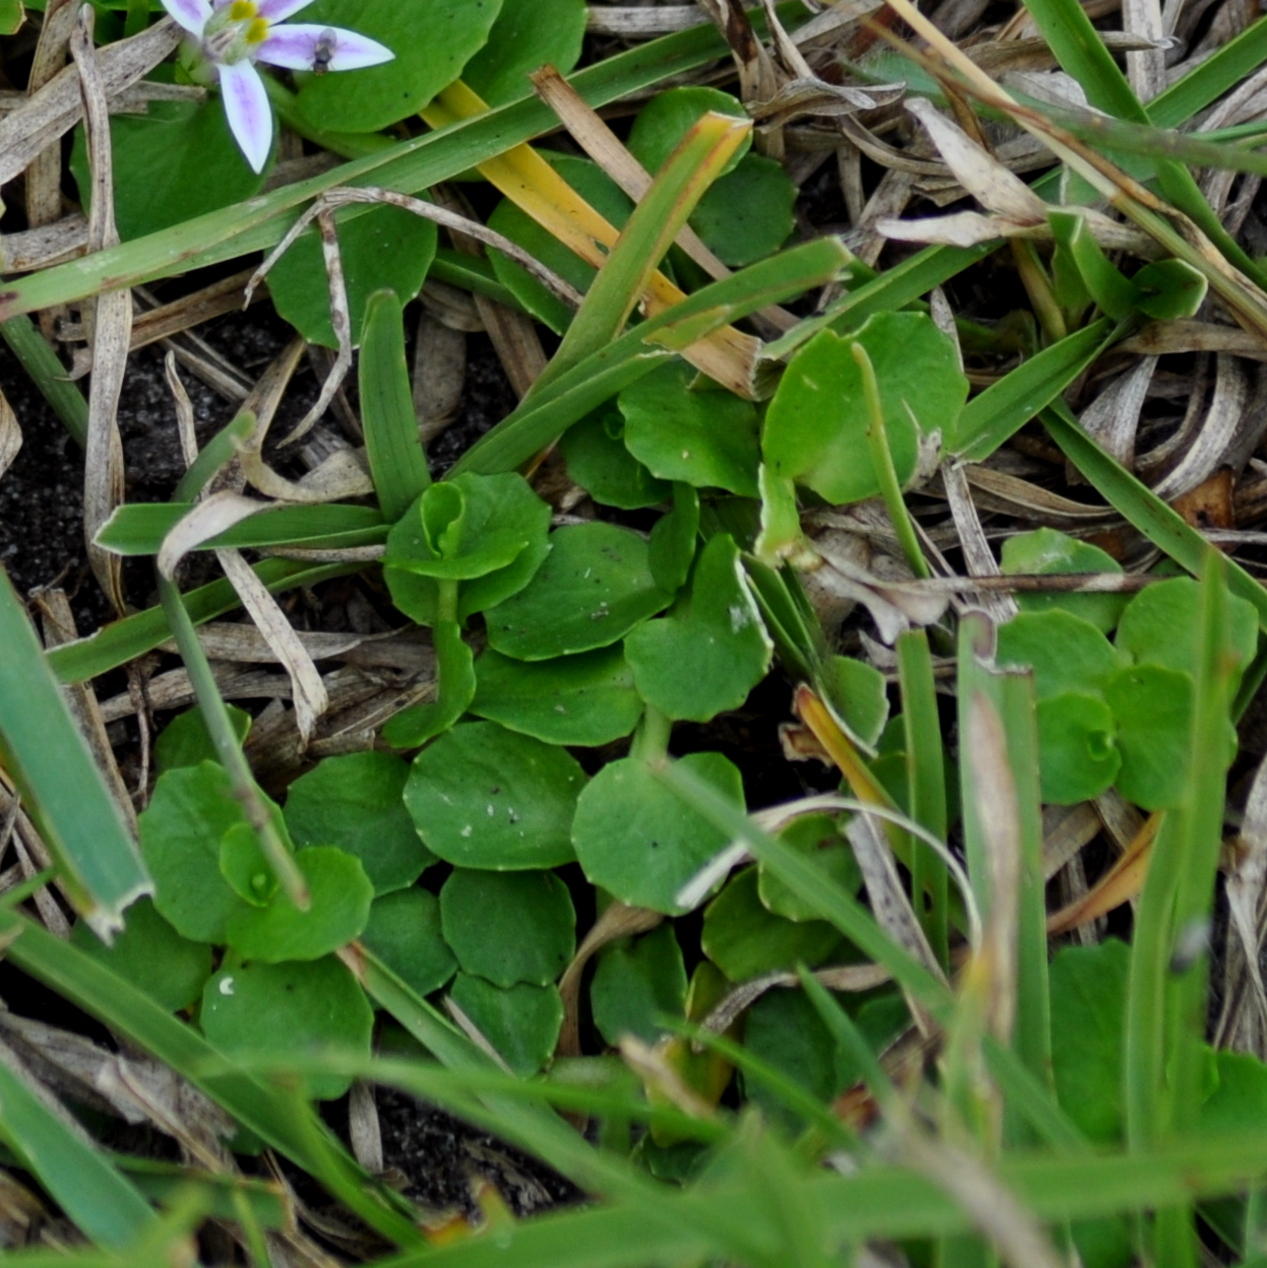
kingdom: Plantae
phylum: Tracheophyta
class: Magnoliopsida
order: Asterales
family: Campanulaceae
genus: Lobelia
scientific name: Lobelia hederacea
